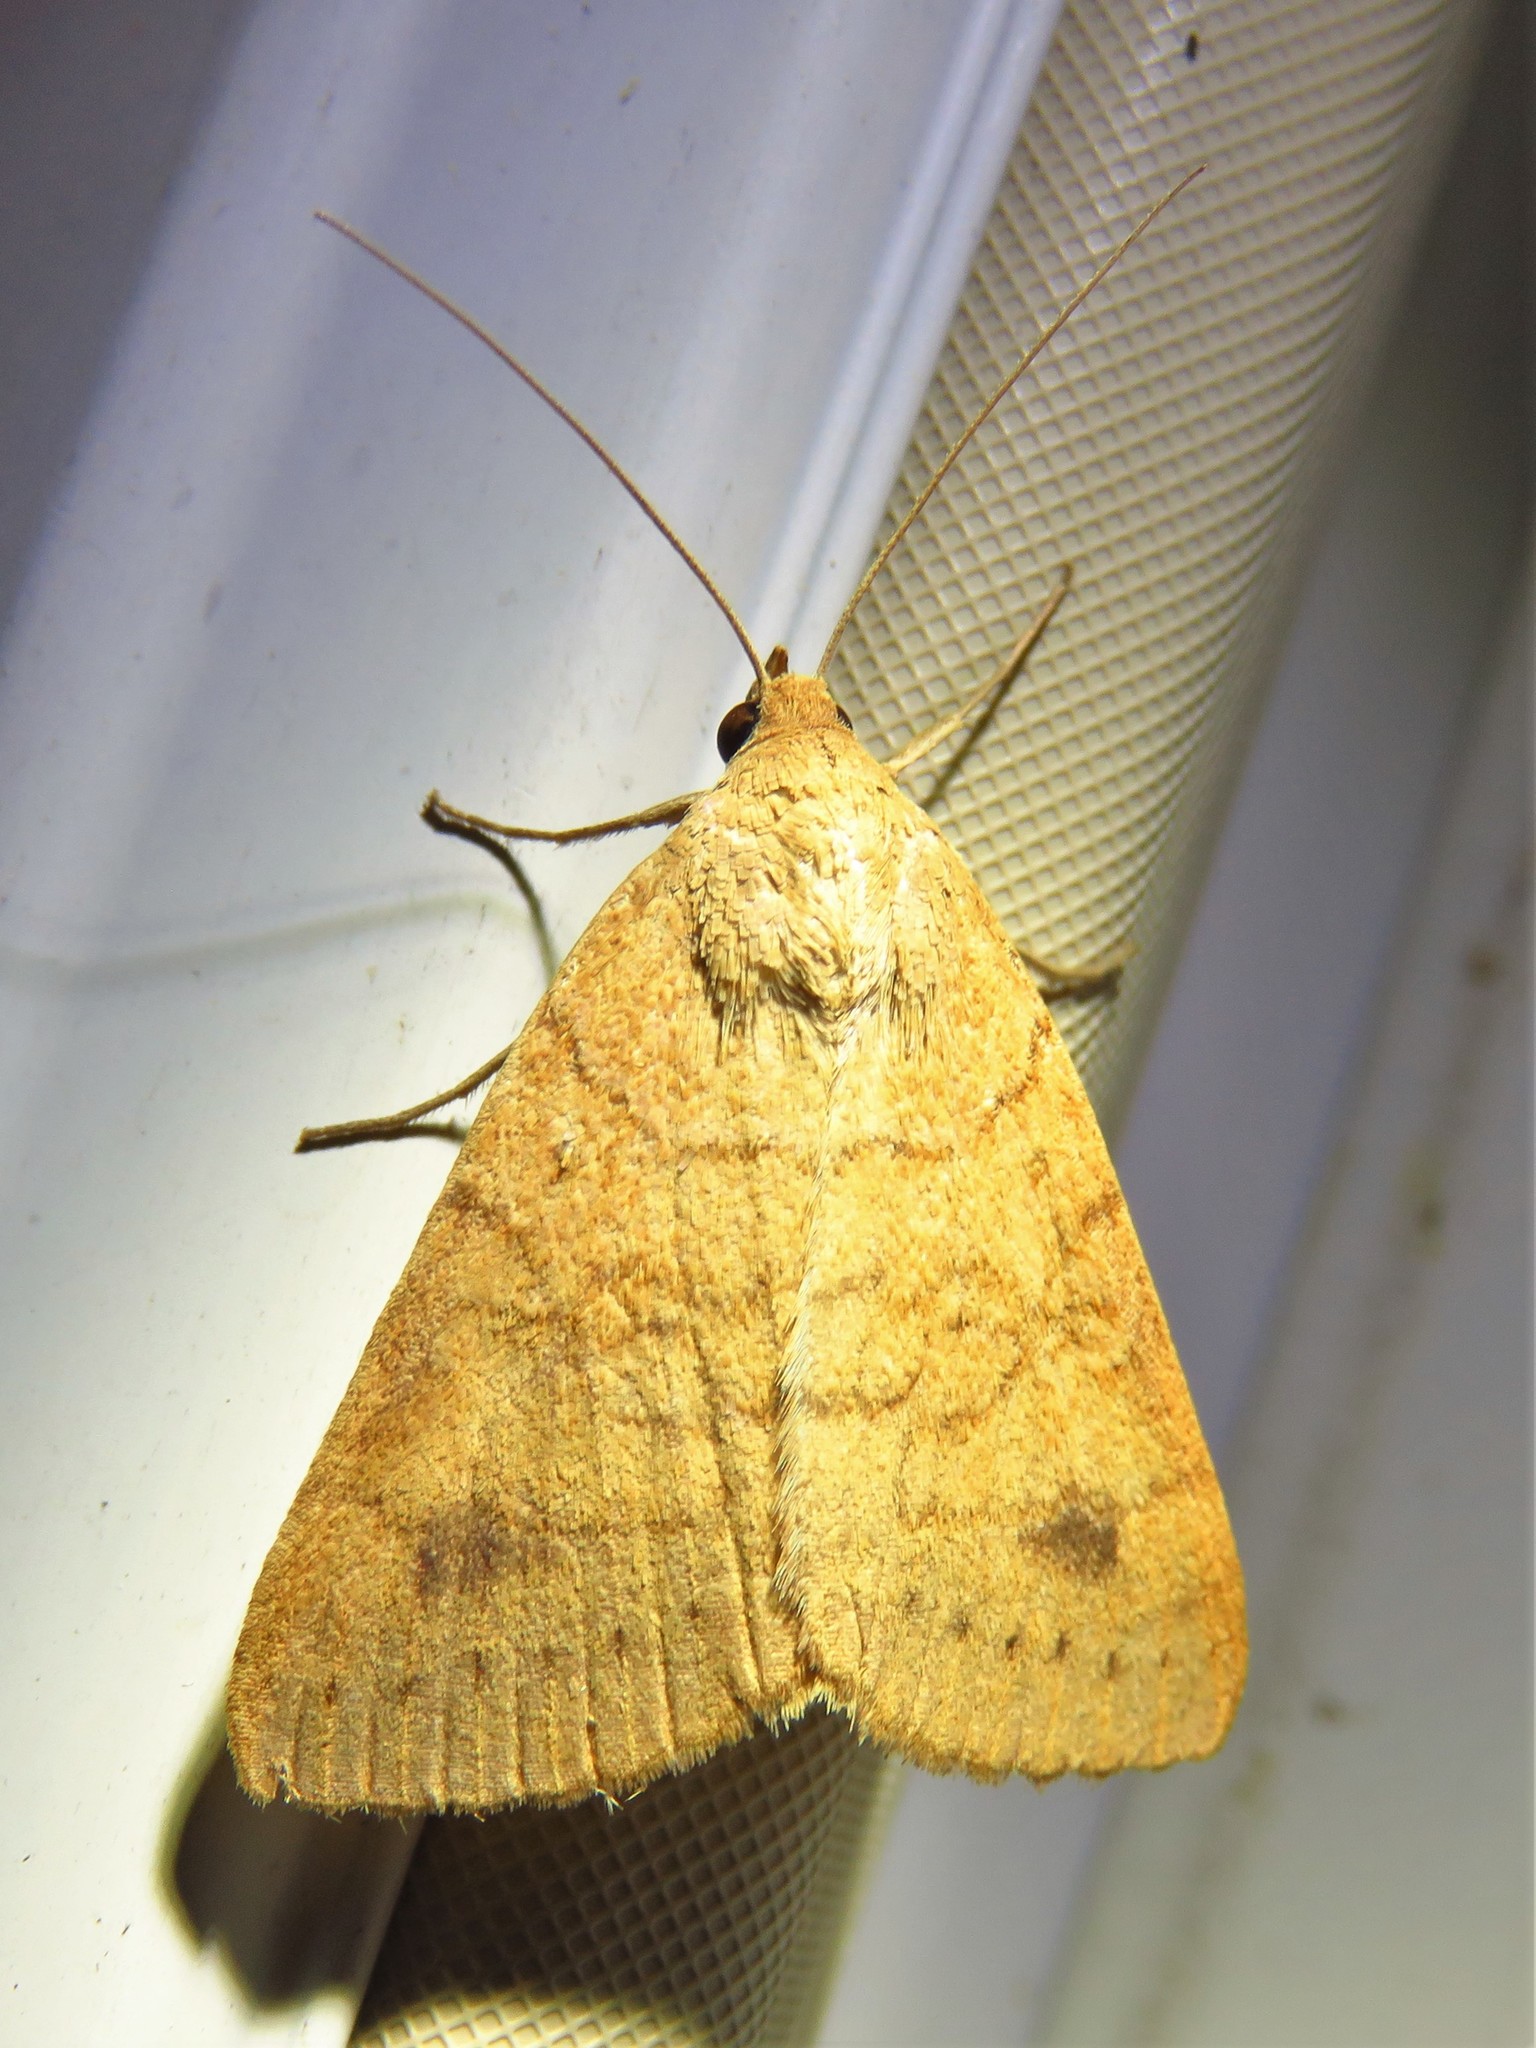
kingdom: Animalia
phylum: Arthropoda
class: Insecta
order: Lepidoptera
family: Erebidae
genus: Caenurgia
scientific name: Caenurgia chloropha
